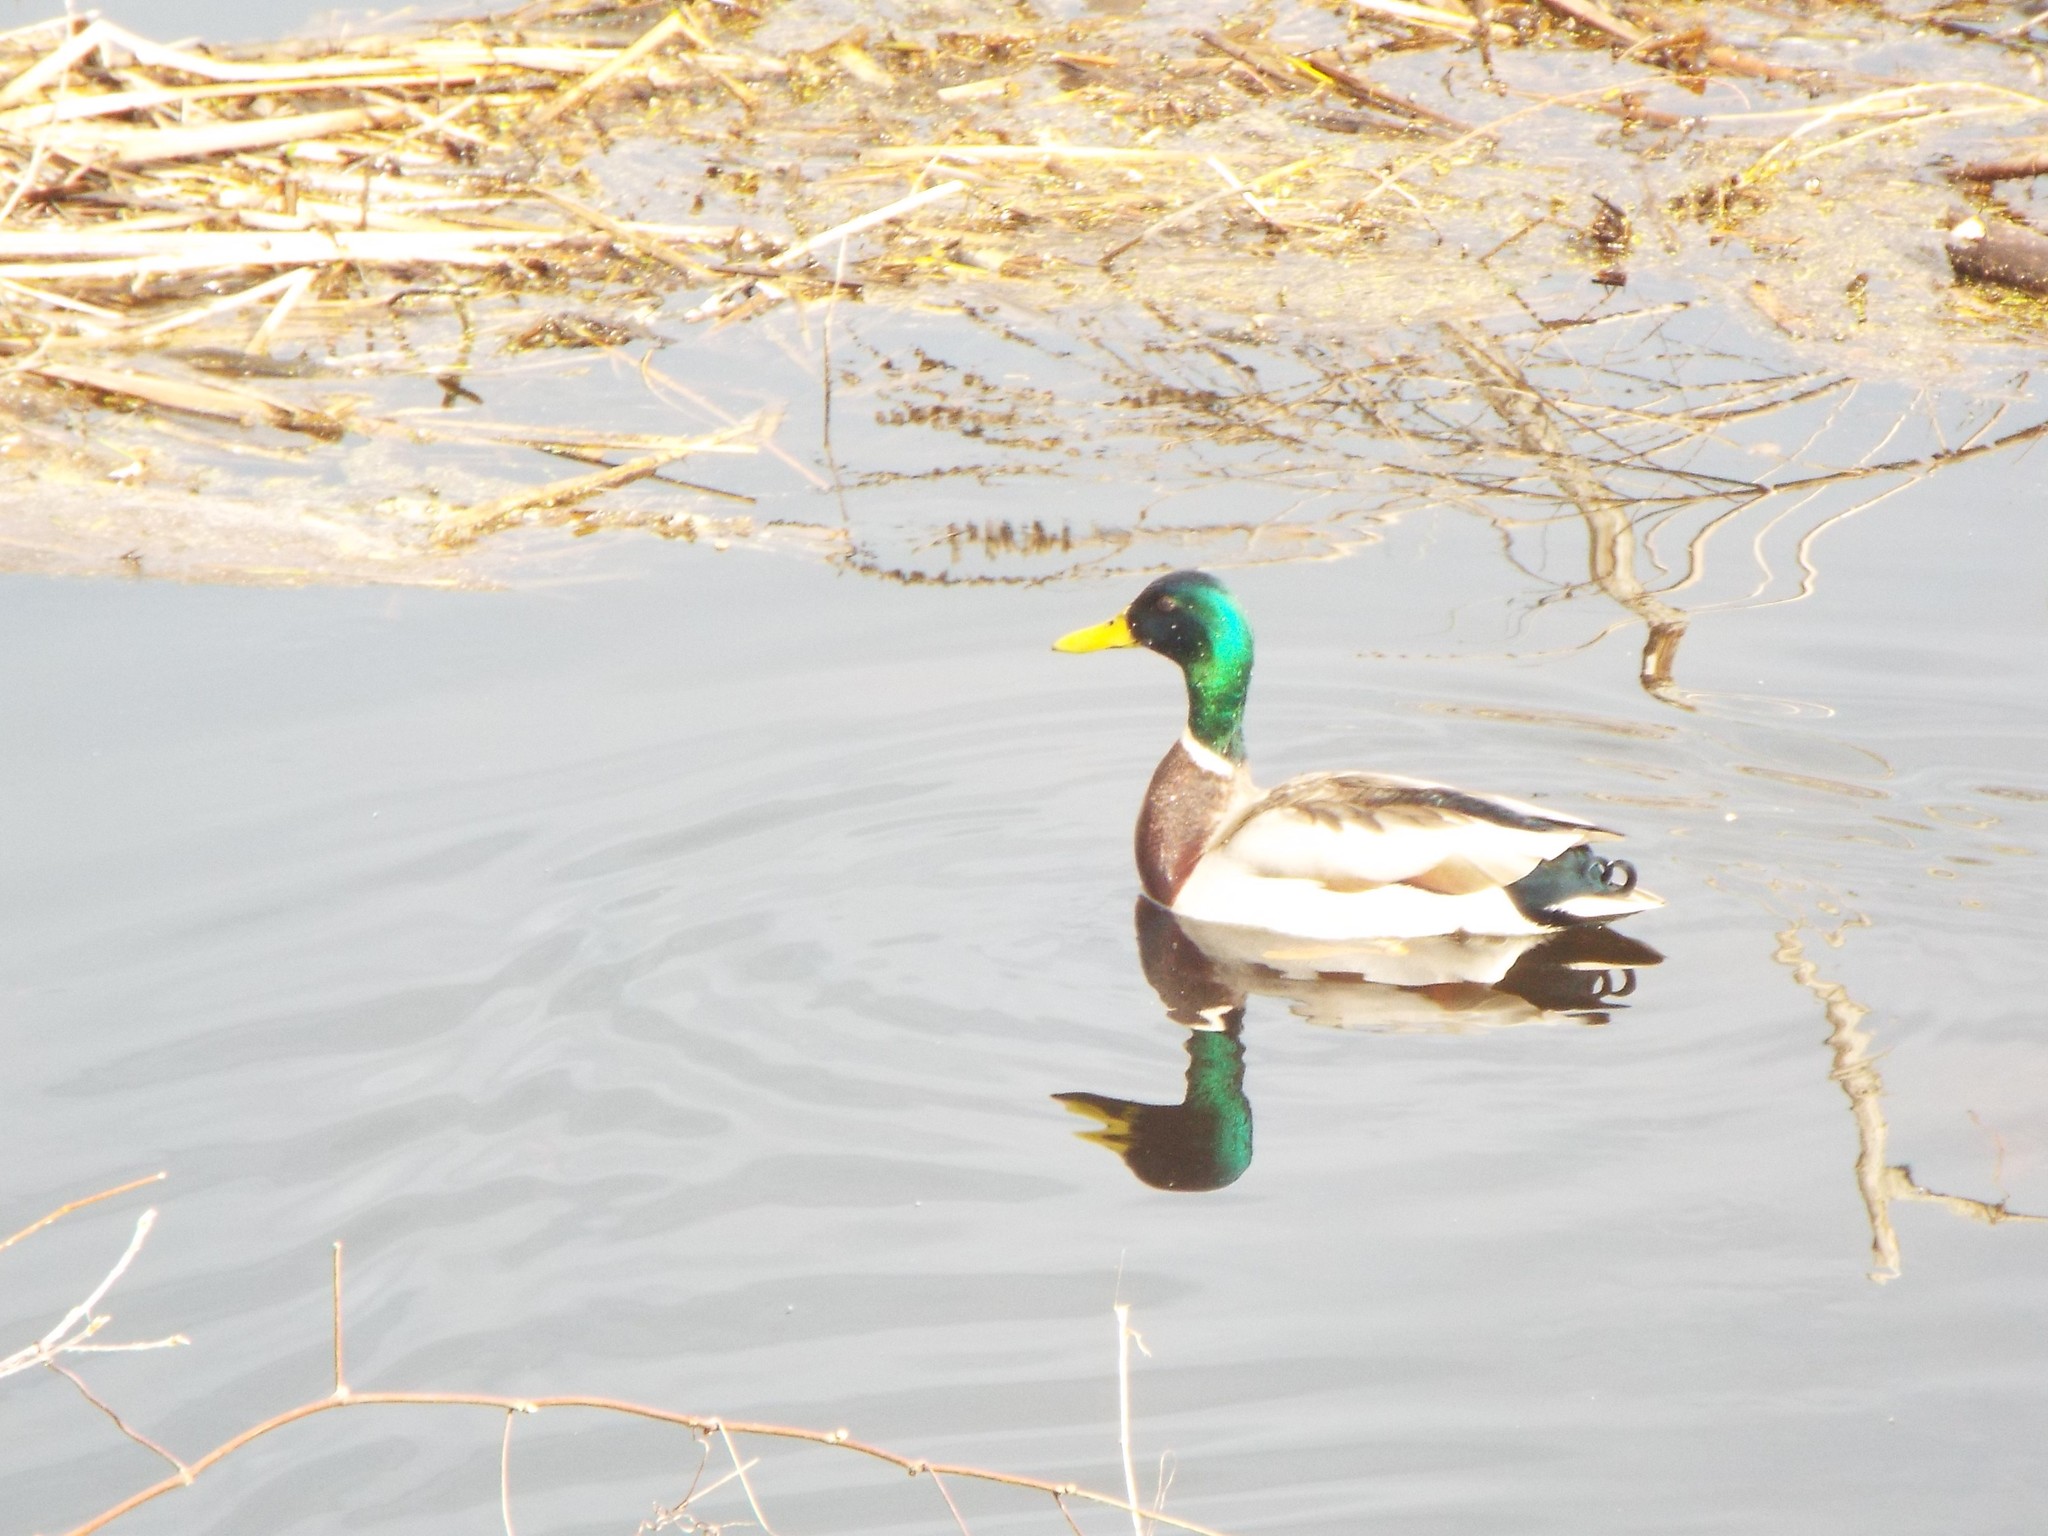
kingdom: Animalia
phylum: Chordata
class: Aves
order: Anseriformes
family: Anatidae
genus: Anas
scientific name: Anas platyrhynchos
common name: Mallard
